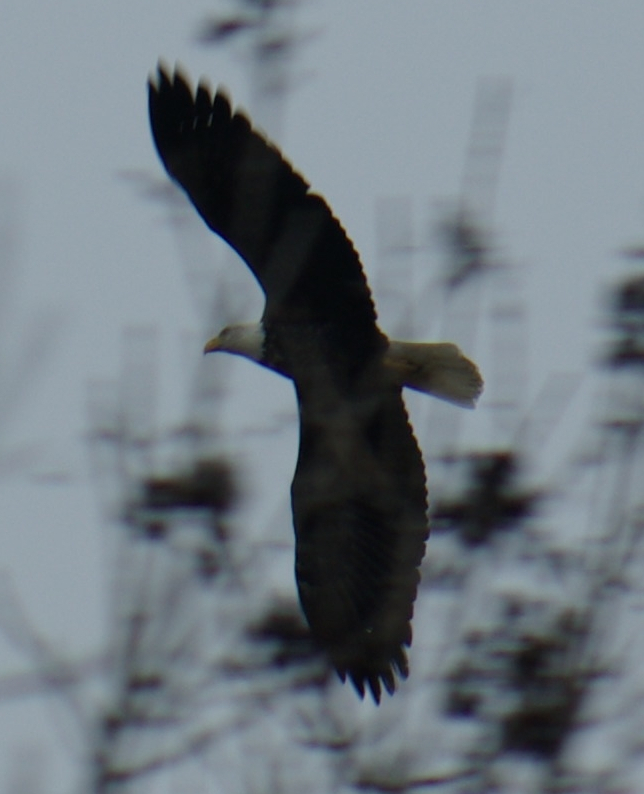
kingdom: Animalia
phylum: Chordata
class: Aves
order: Accipitriformes
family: Accipitridae
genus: Haliaeetus
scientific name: Haliaeetus leucocephalus
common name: Bald eagle
